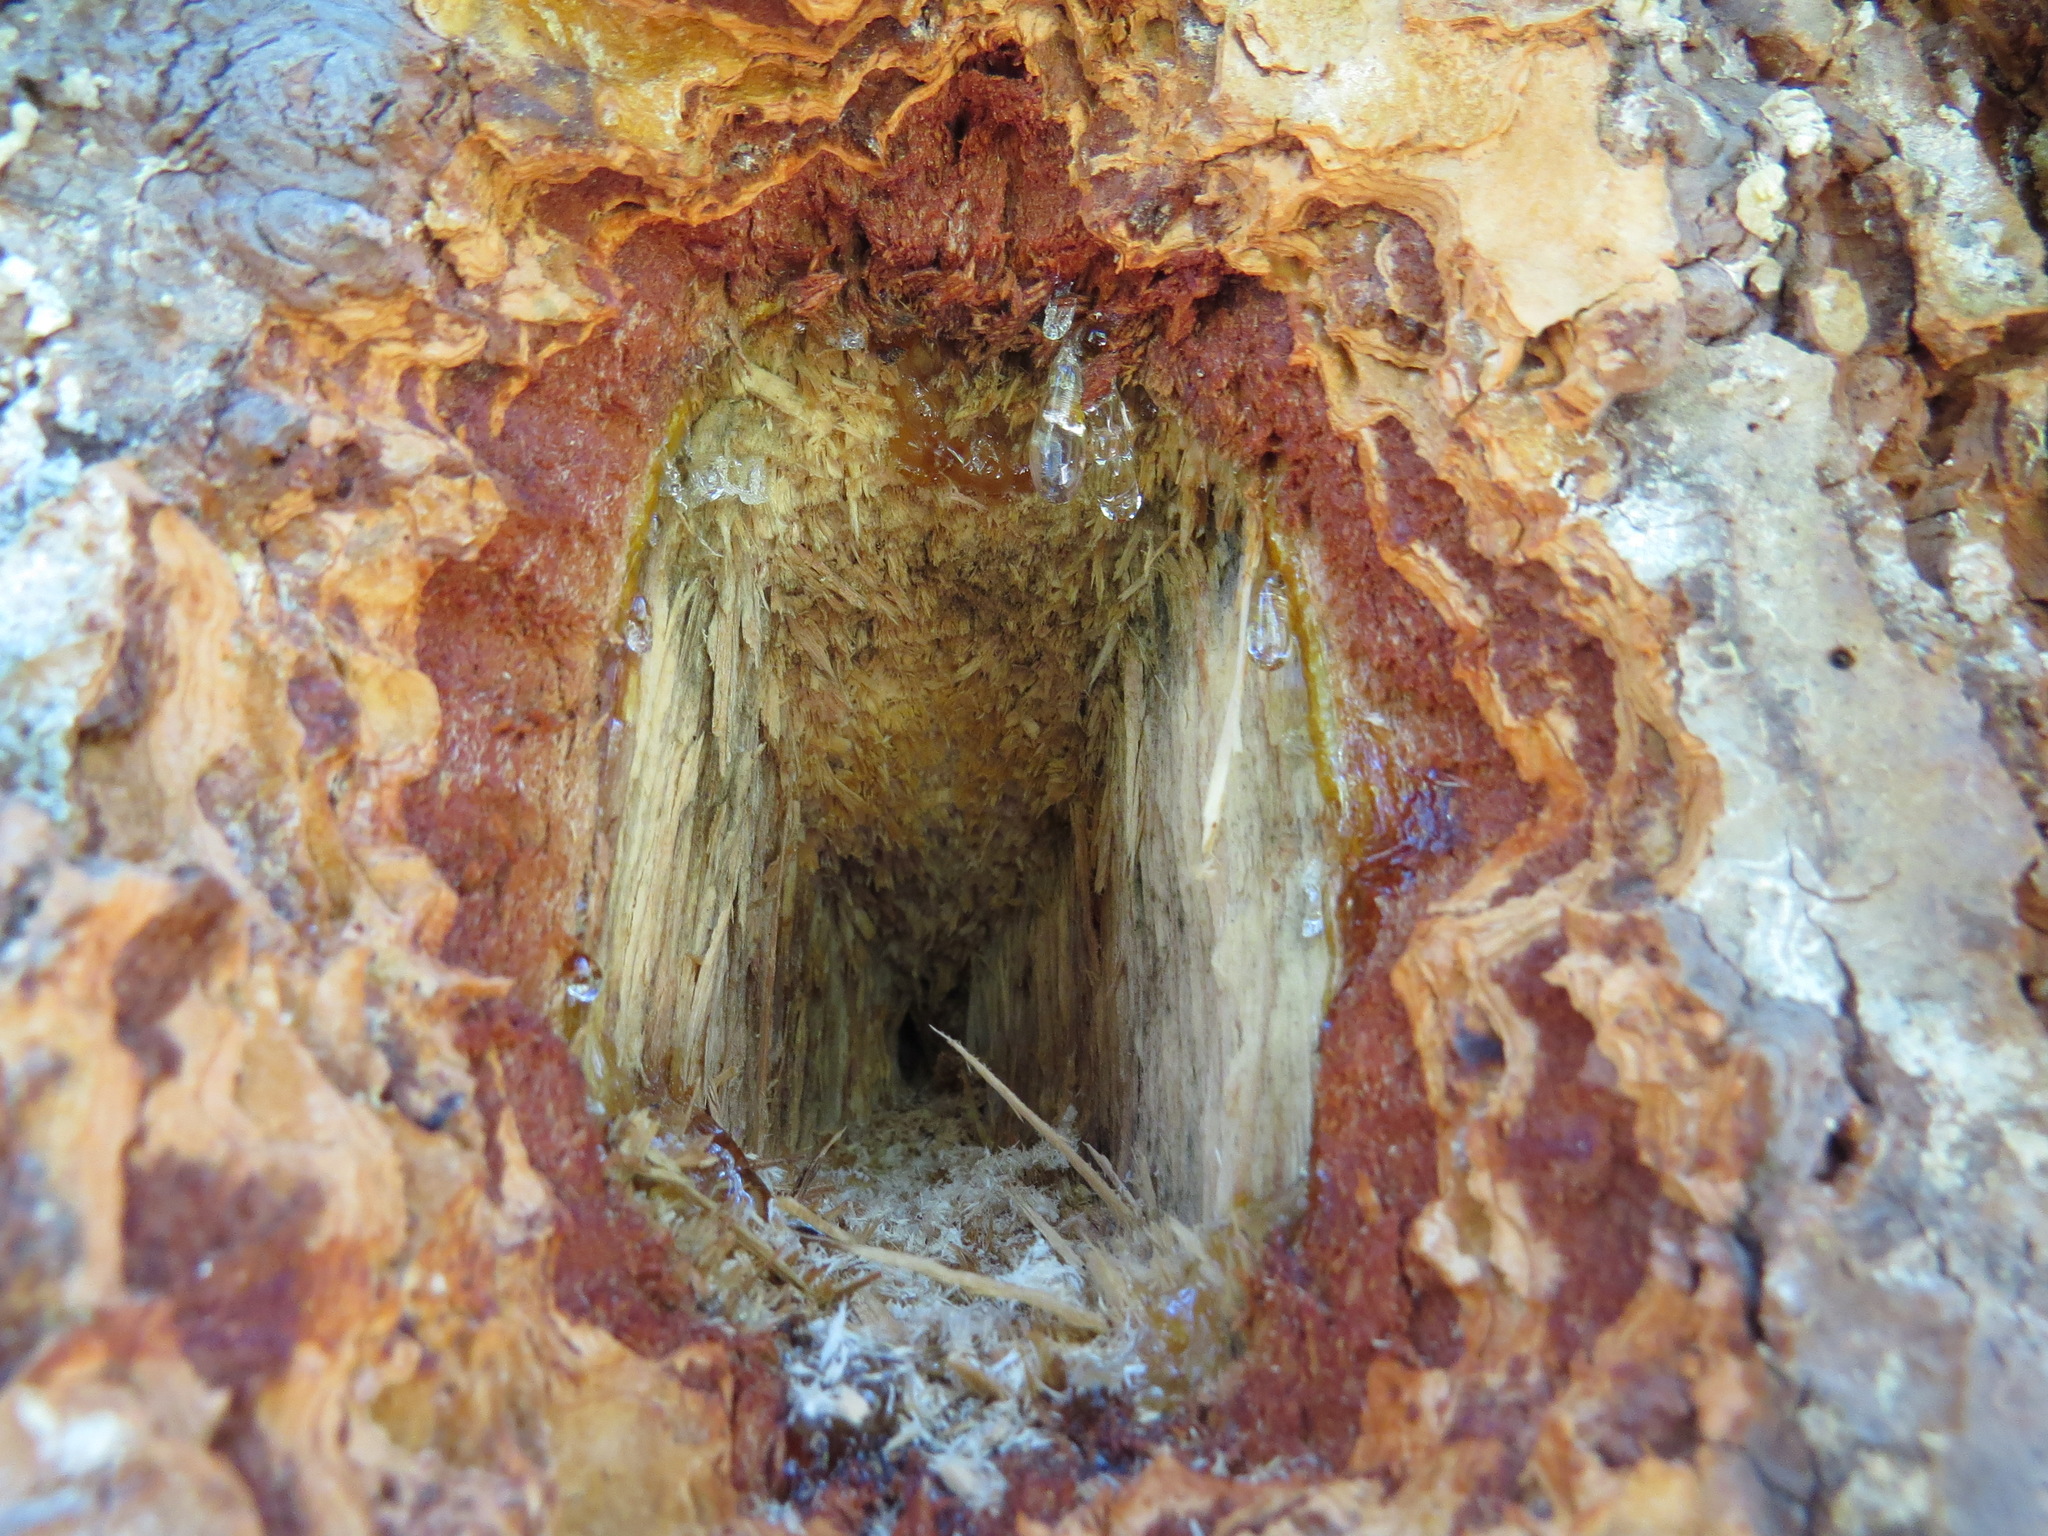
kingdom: Animalia
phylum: Chordata
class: Aves
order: Piciformes
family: Picidae
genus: Dryocopus
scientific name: Dryocopus pileatus
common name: Pileated woodpecker
